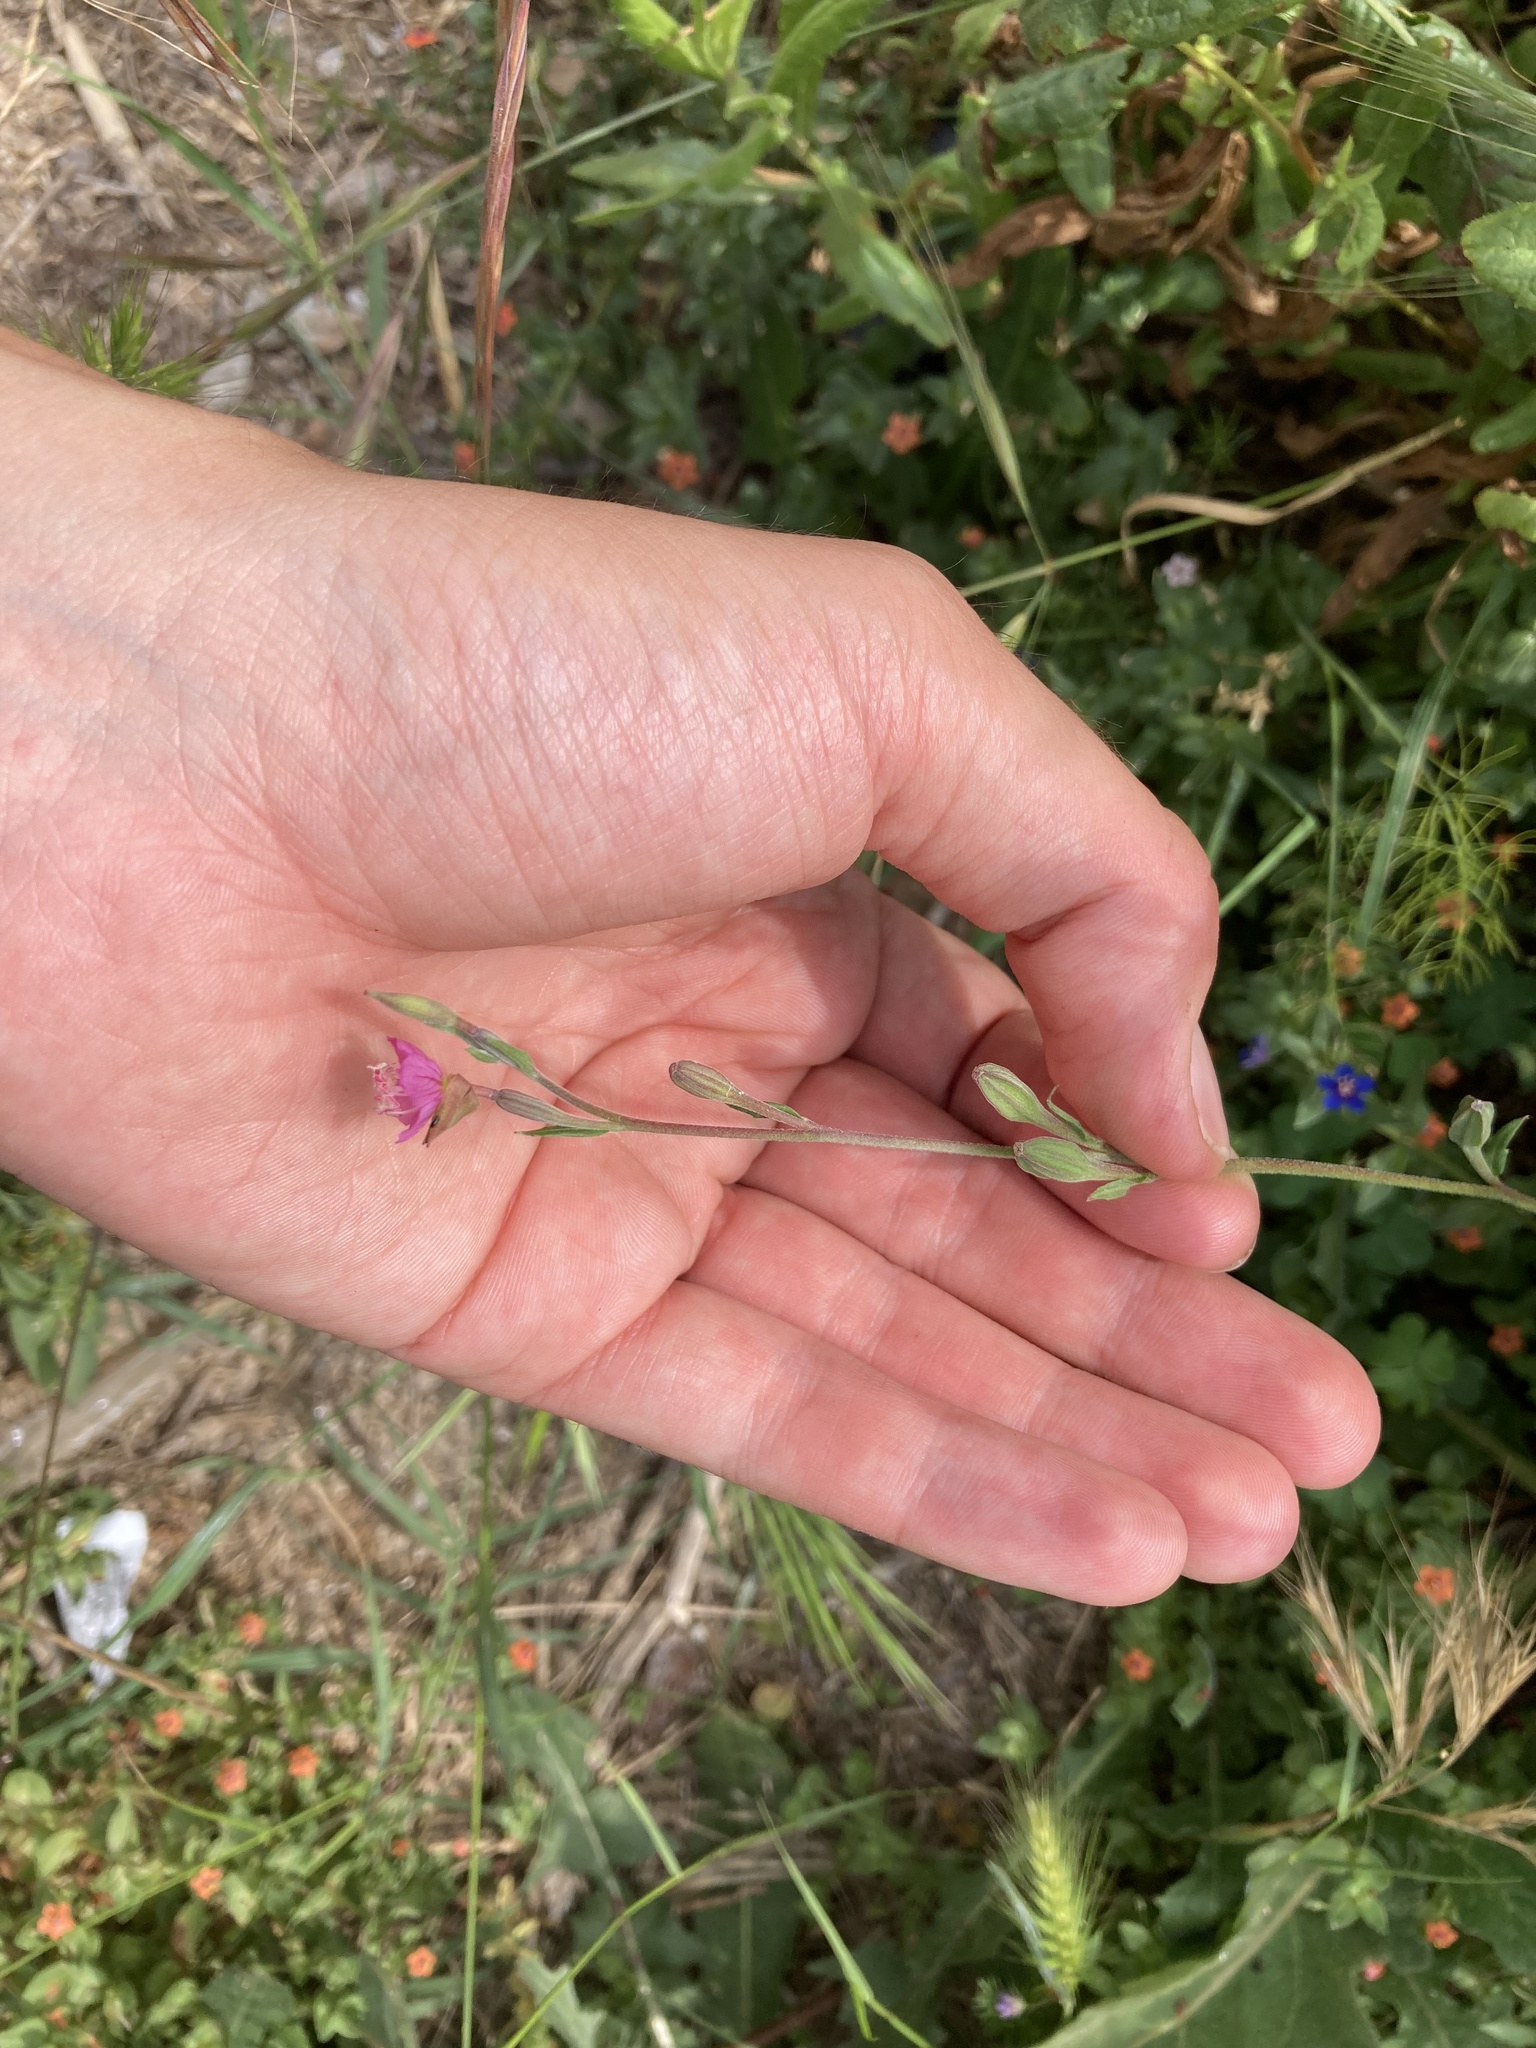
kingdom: Plantae
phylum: Tracheophyta
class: Magnoliopsida
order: Myrtales
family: Onagraceae
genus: Oenothera
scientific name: Oenothera rosea
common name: Rosy evening-primrose
